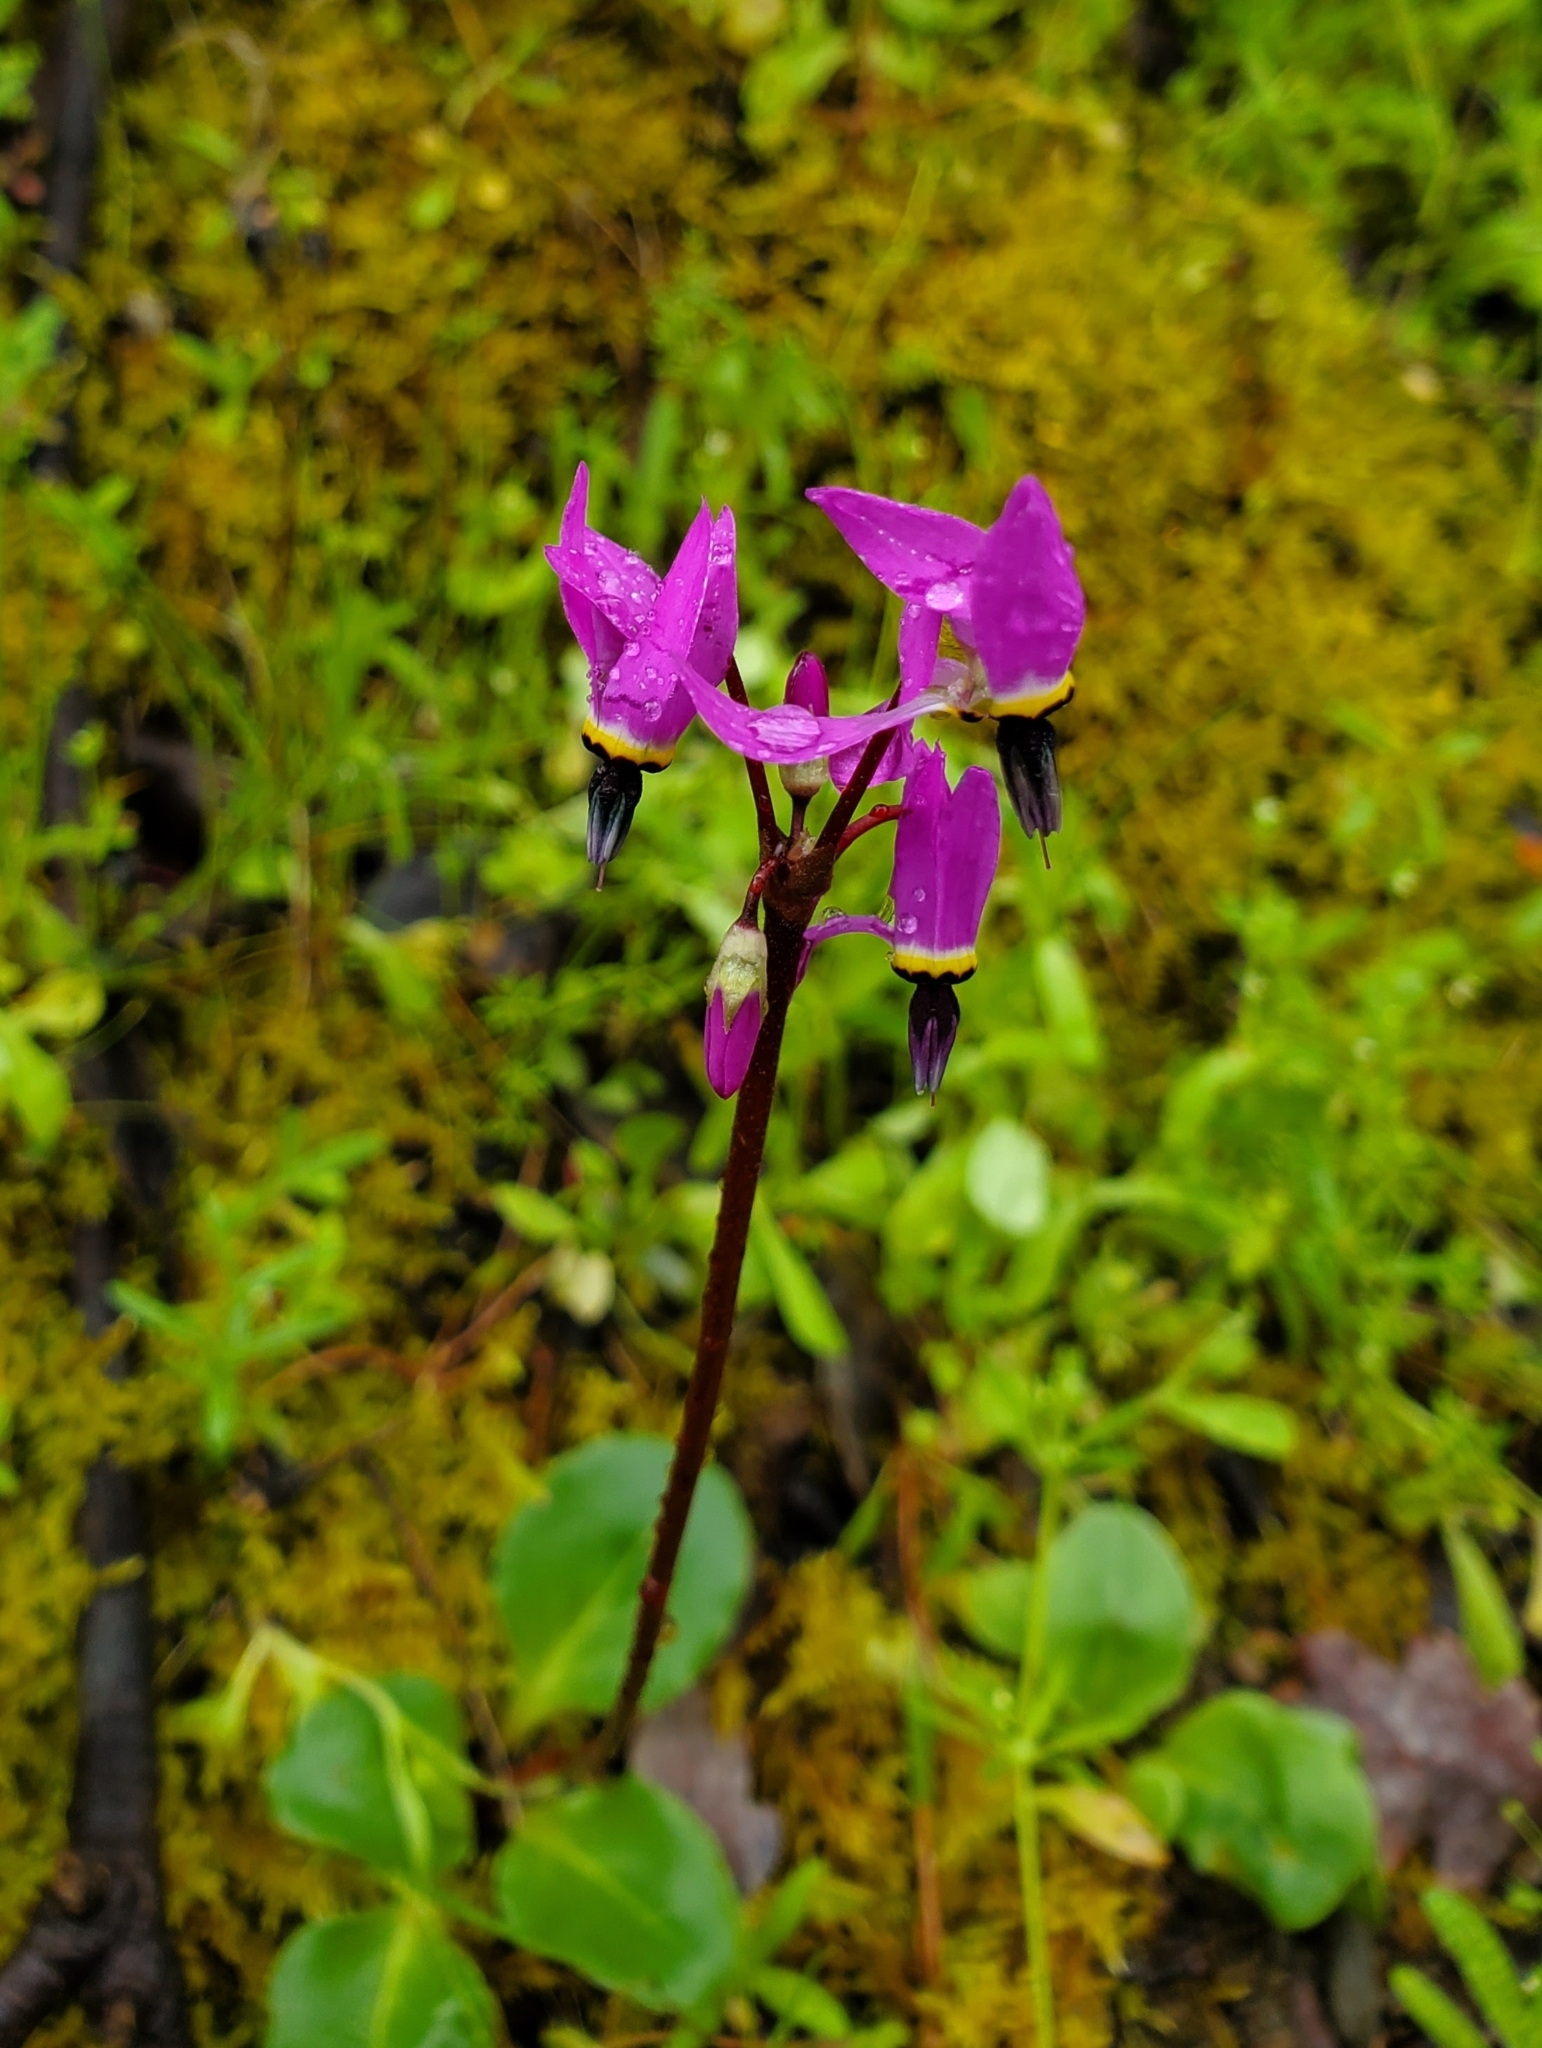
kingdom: Plantae
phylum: Tracheophyta
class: Magnoliopsida
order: Ericales
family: Primulaceae
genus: Dodecatheon
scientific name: Dodecatheon hendersonii
